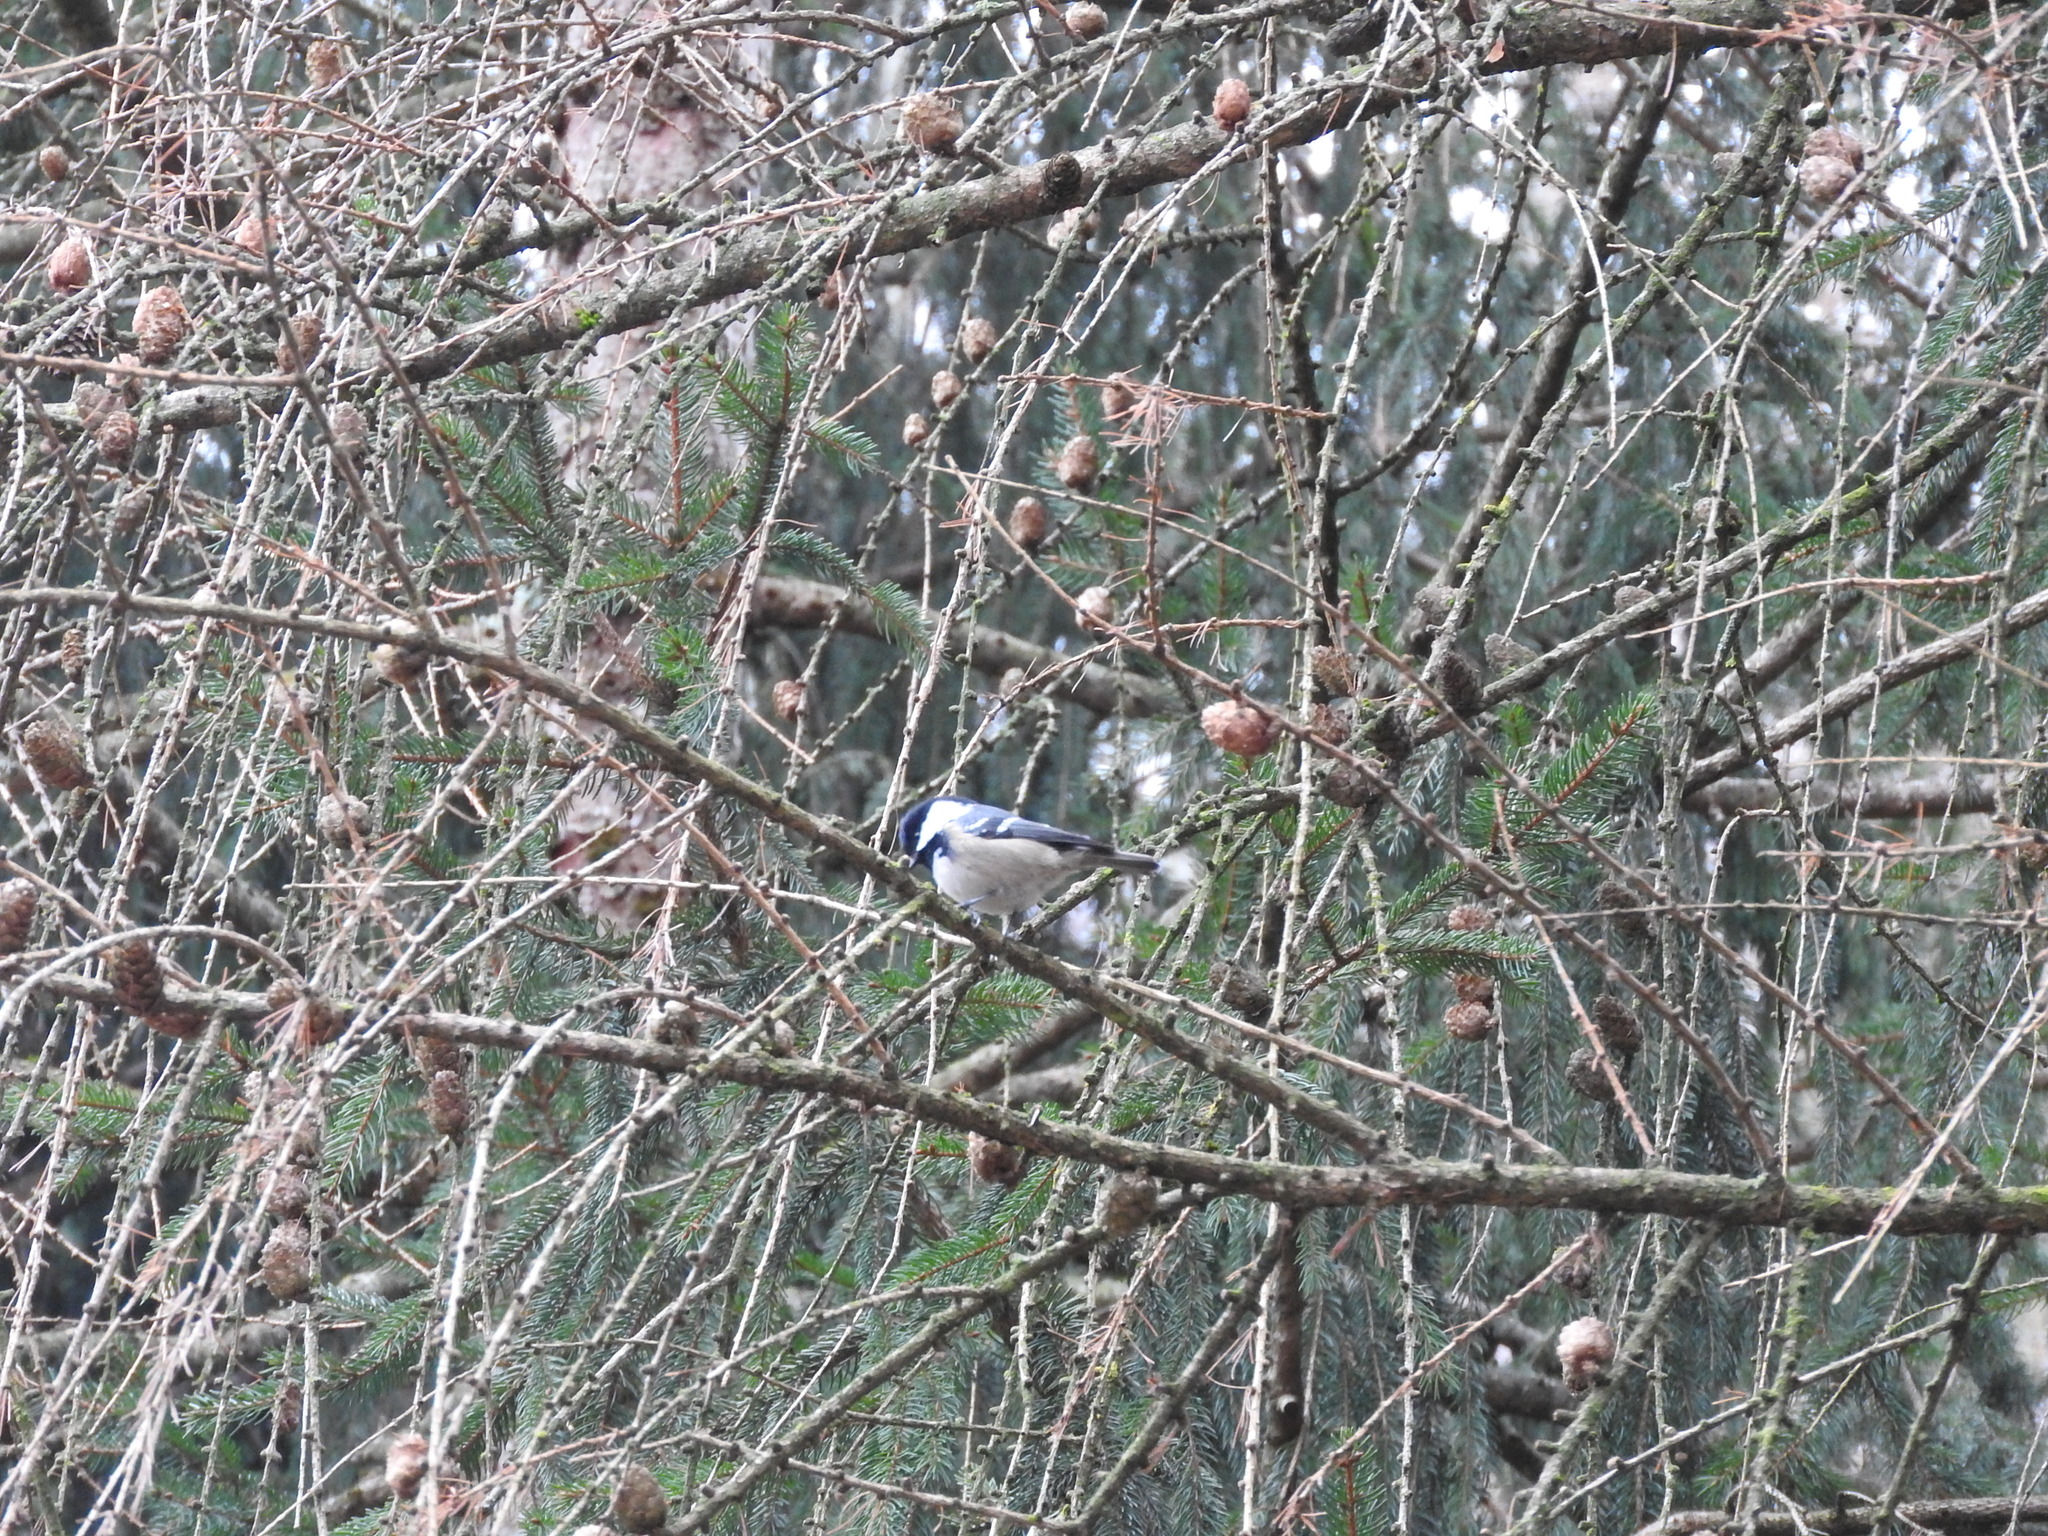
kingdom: Animalia
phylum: Chordata
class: Aves
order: Passeriformes
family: Paridae
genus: Periparus
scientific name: Periparus ater
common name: Coal tit
